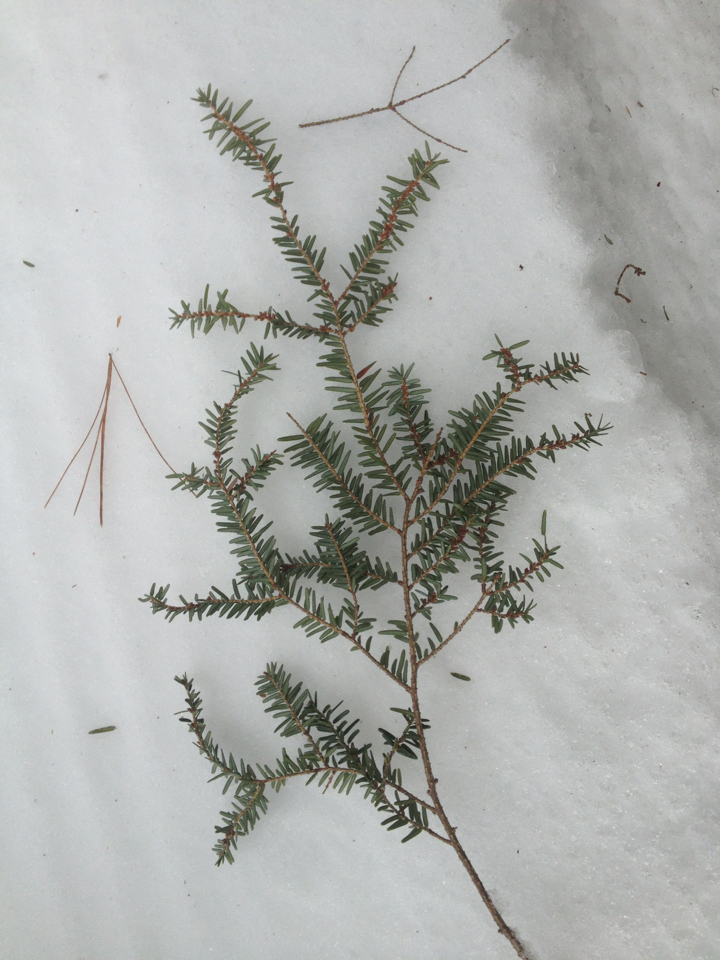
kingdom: Plantae
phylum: Tracheophyta
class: Pinopsida
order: Pinales
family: Pinaceae
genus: Tsuga
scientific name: Tsuga canadensis
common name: Eastern hemlock
